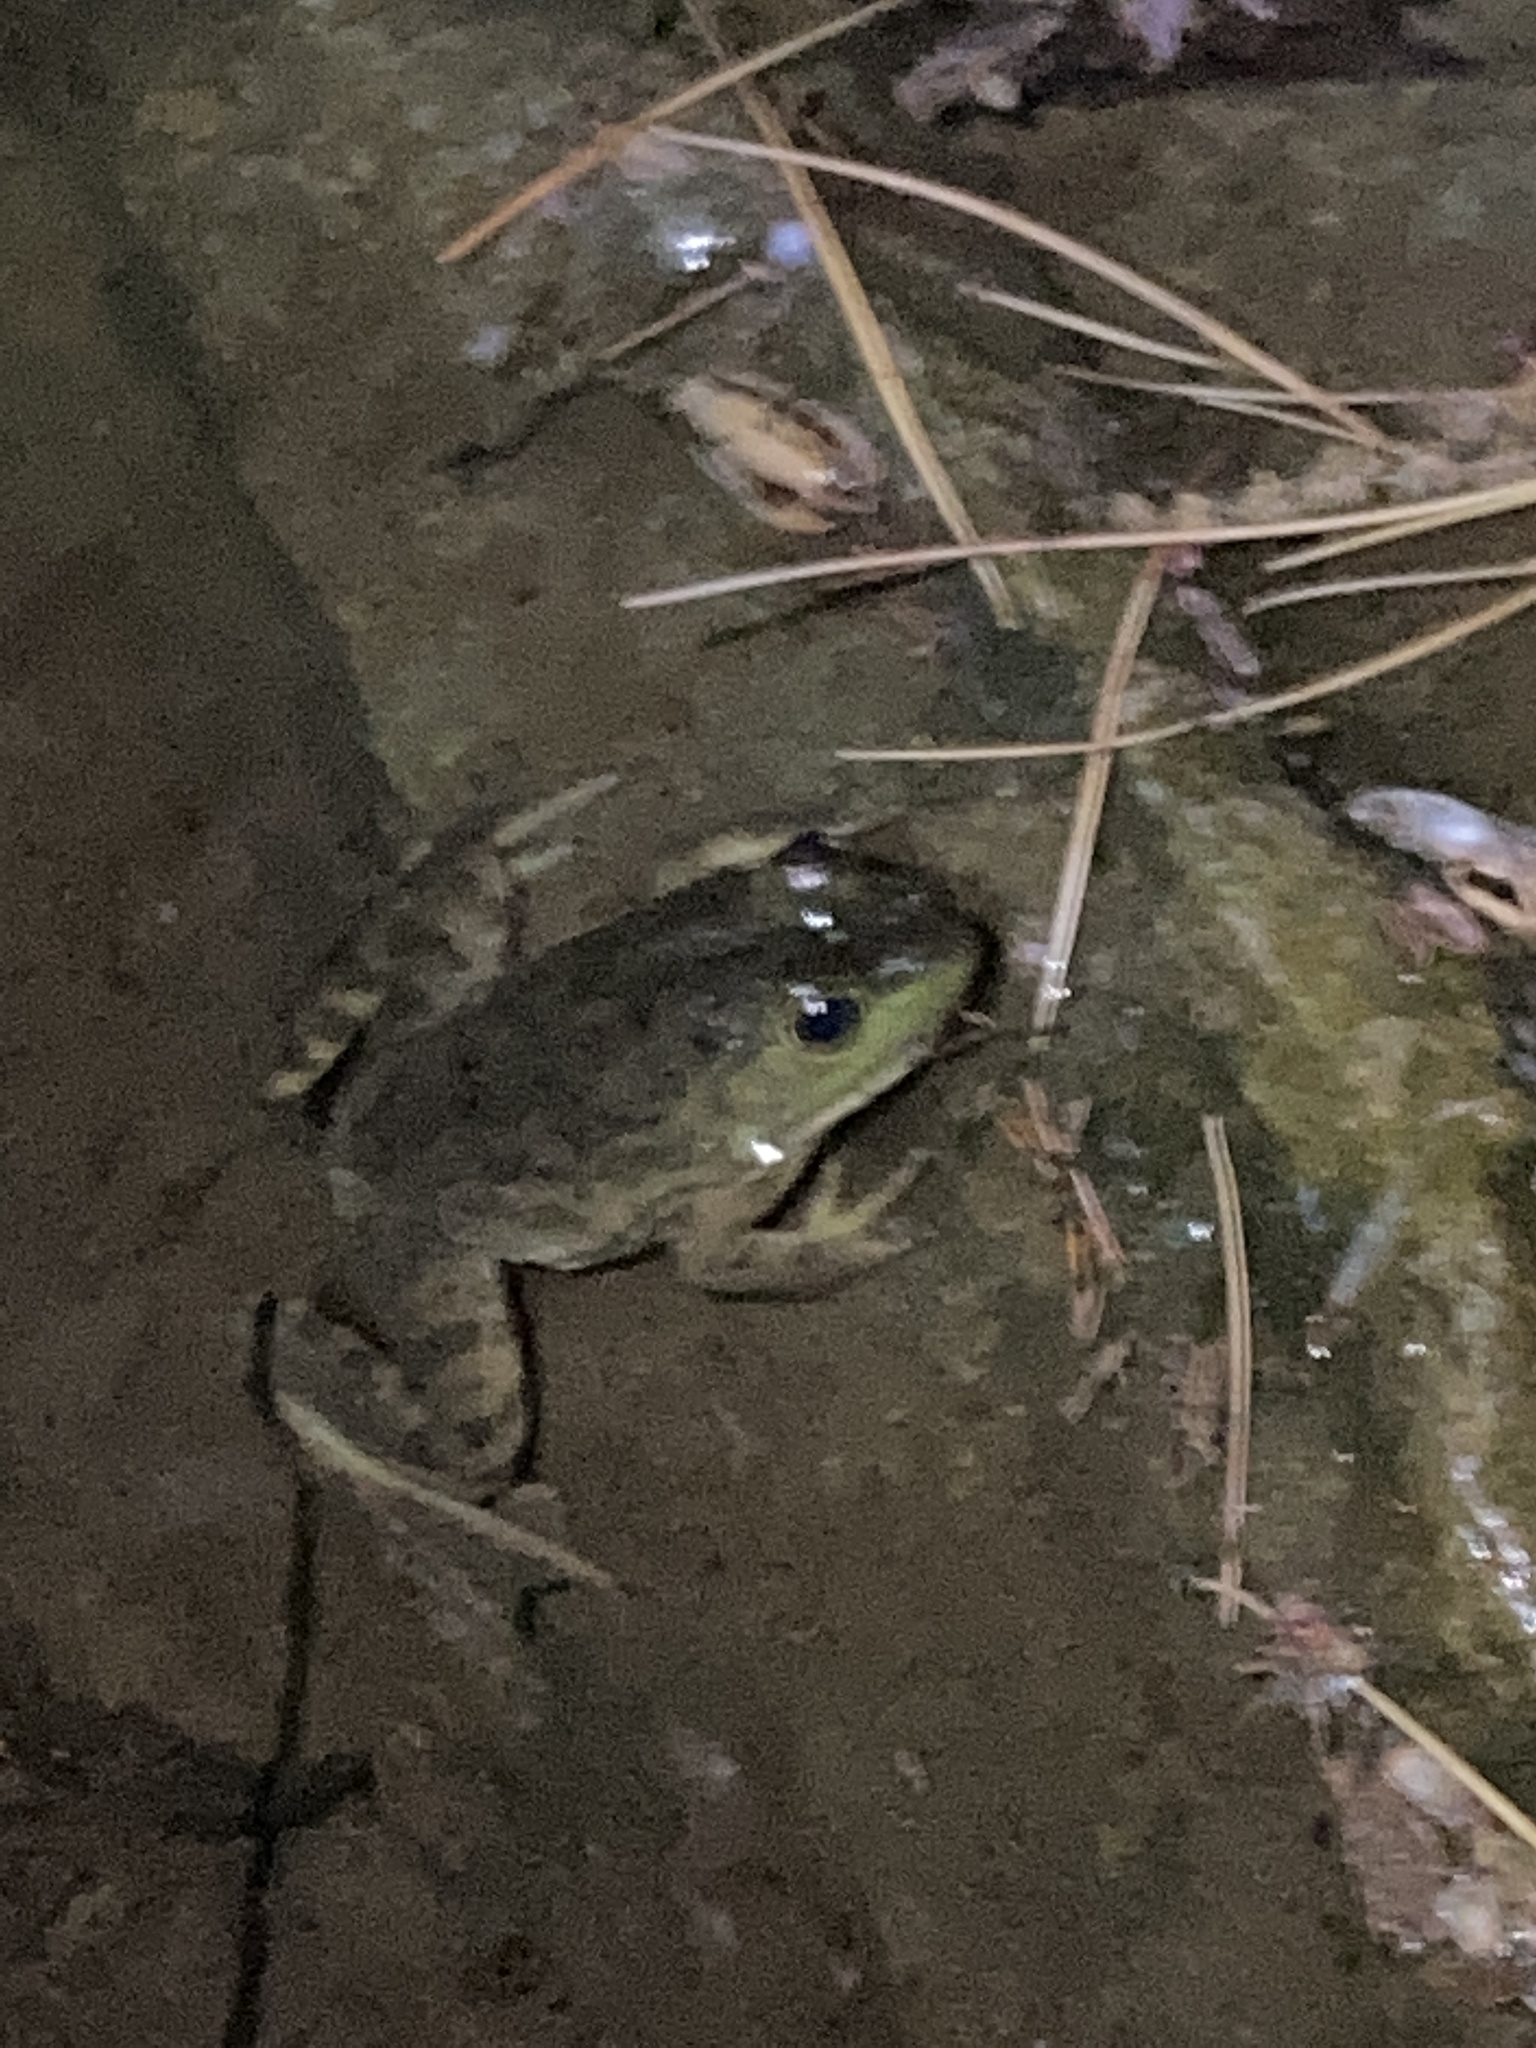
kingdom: Animalia
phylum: Chordata
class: Amphibia
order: Anura
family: Ranidae
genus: Lithobates
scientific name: Lithobates catesbeianus
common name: American bullfrog
